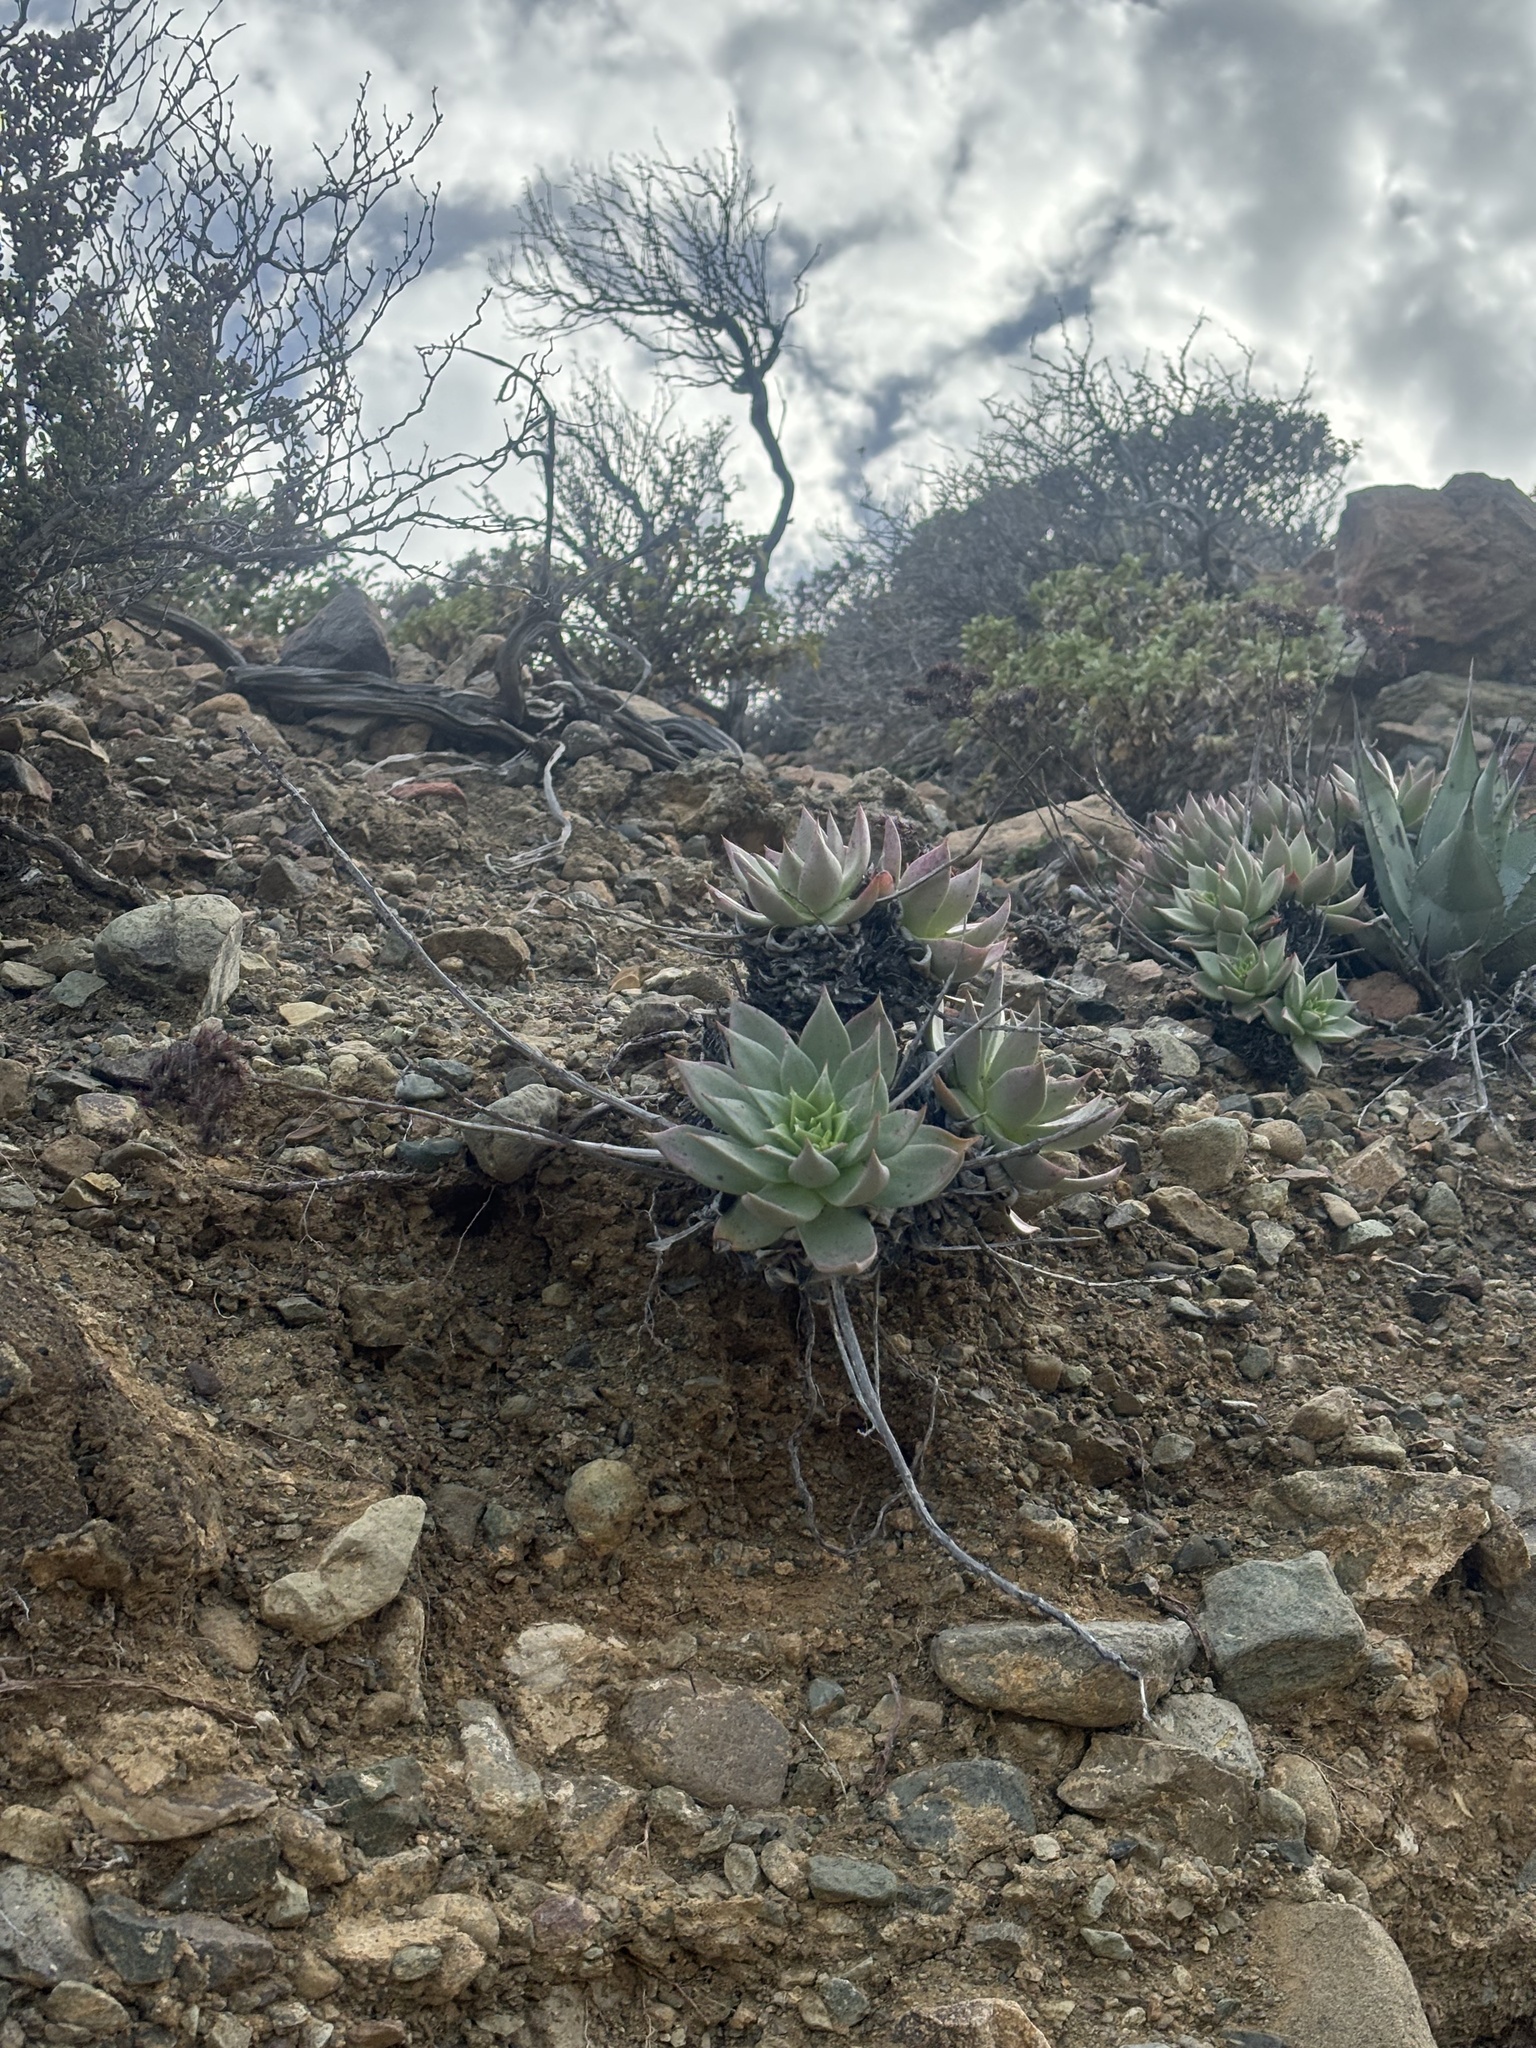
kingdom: Plantae
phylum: Tracheophyta
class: Magnoliopsida
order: Saxifragales
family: Crassulaceae
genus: Dudleya
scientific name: Dudleya cochimiana
